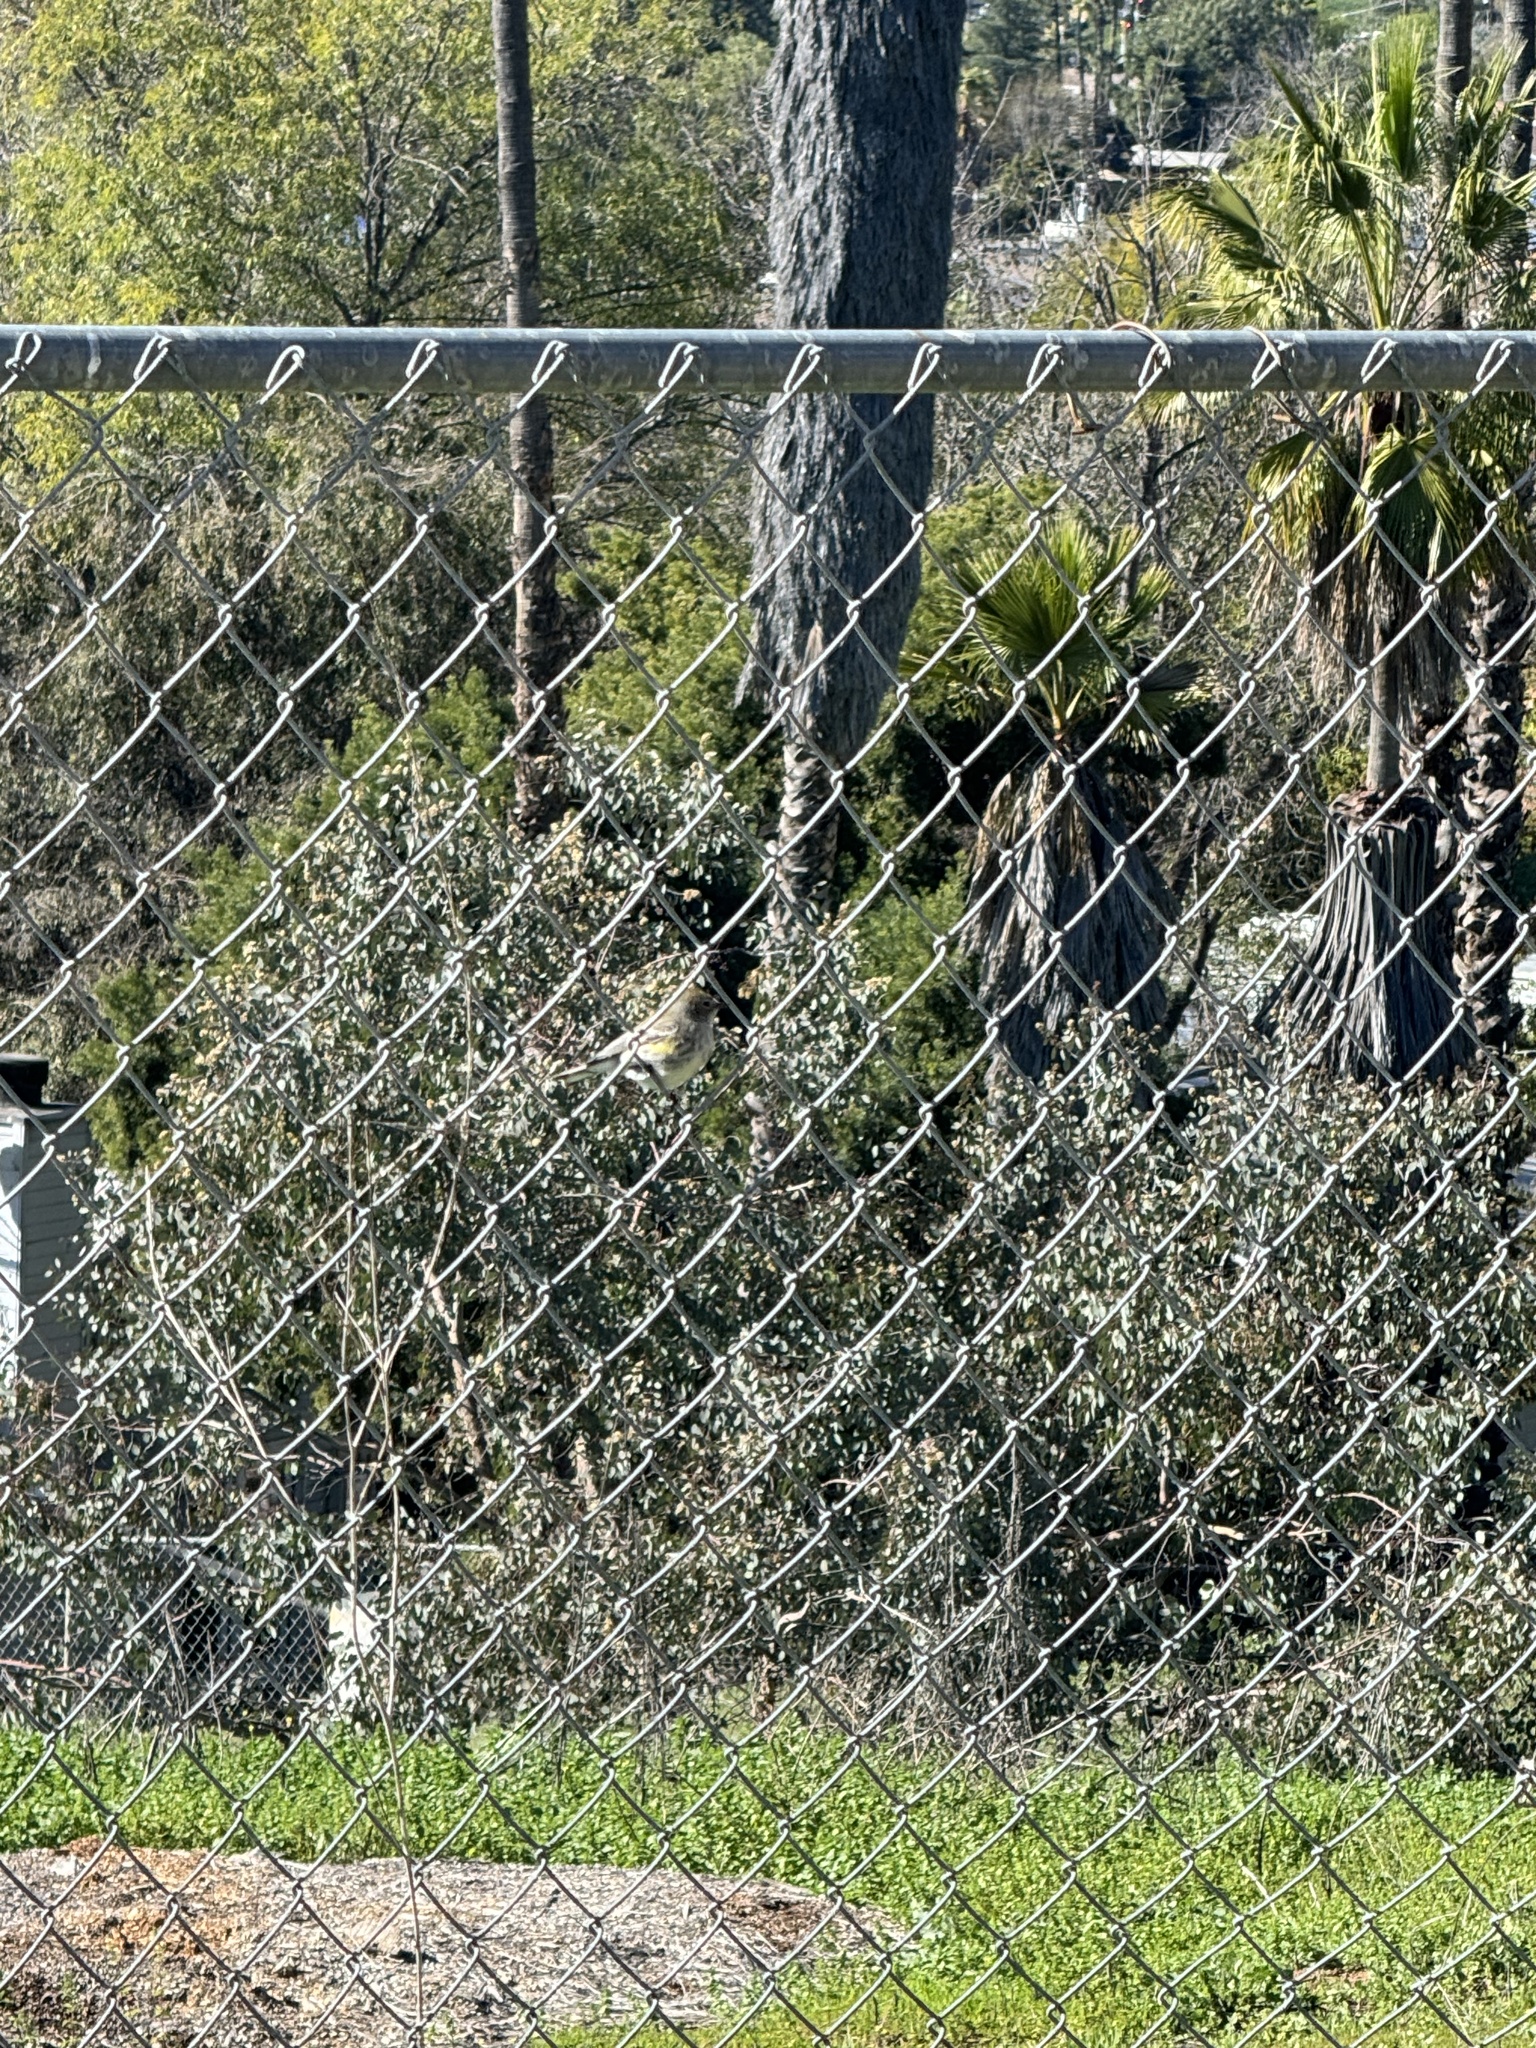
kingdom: Animalia
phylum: Chordata
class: Aves
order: Passeriformes
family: Parulidae
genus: Setophaga
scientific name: Setophaga coronata
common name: Myrtle warbler
